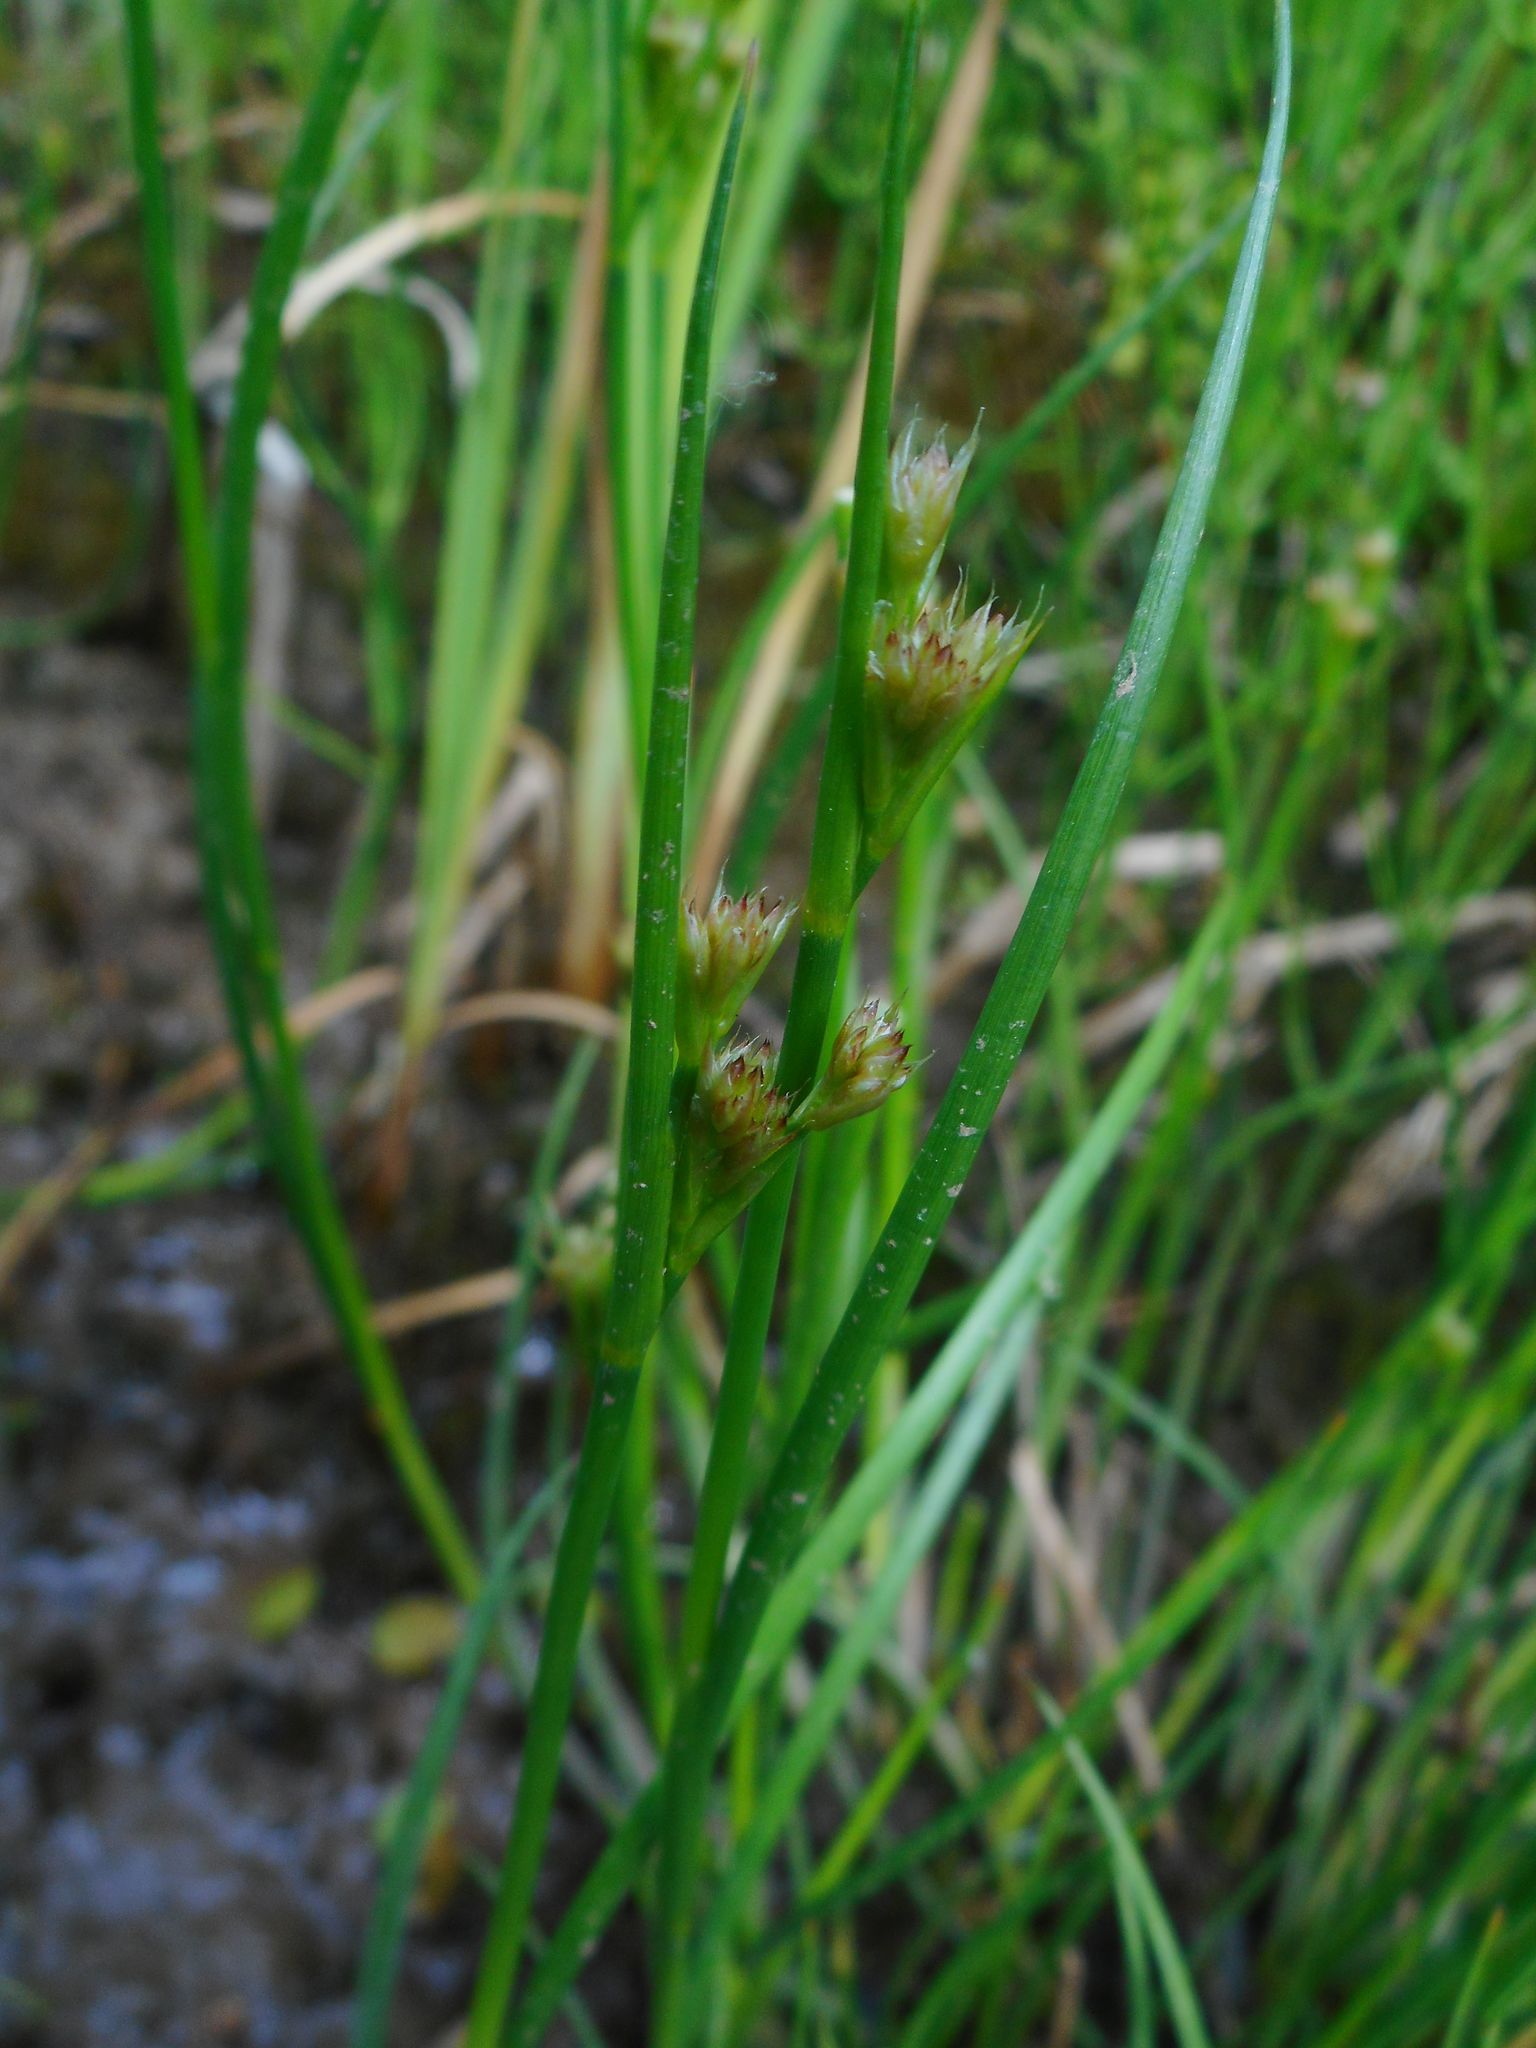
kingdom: Plantae
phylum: Tracheophyta
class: Liliopsida
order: Poales
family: Juncaceae
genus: Juncus
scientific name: Juncus articulatus
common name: Jointed rush
